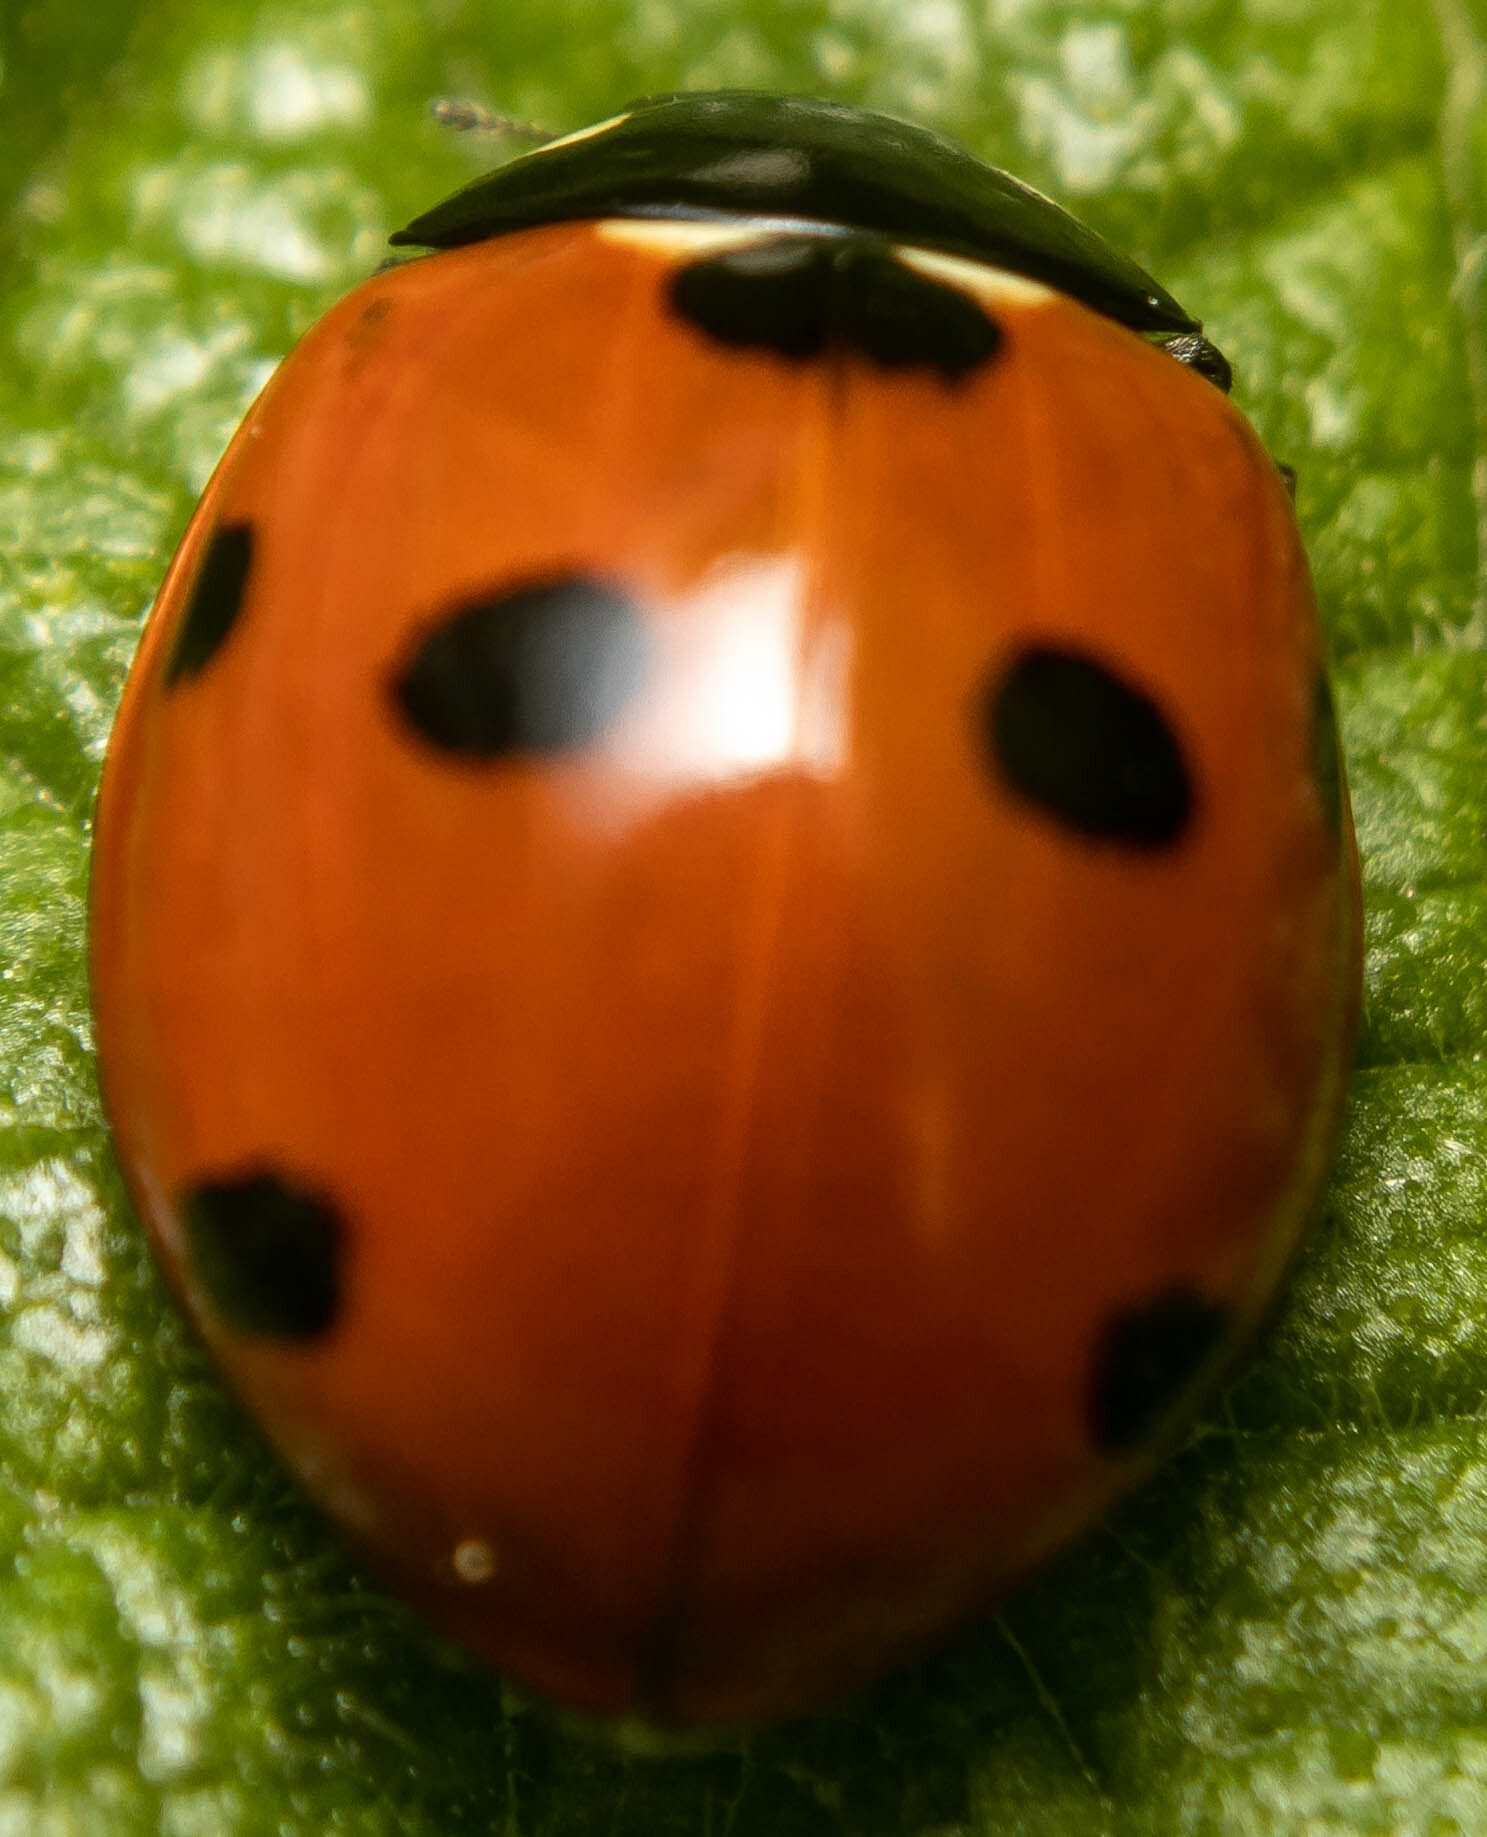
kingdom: Animalia
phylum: Arthropoda
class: Insecta
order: Coleoptera
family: Coccinellidae
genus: Coccinella
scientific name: Coccinella septempunctata
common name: Sevenspotted lady beetle
